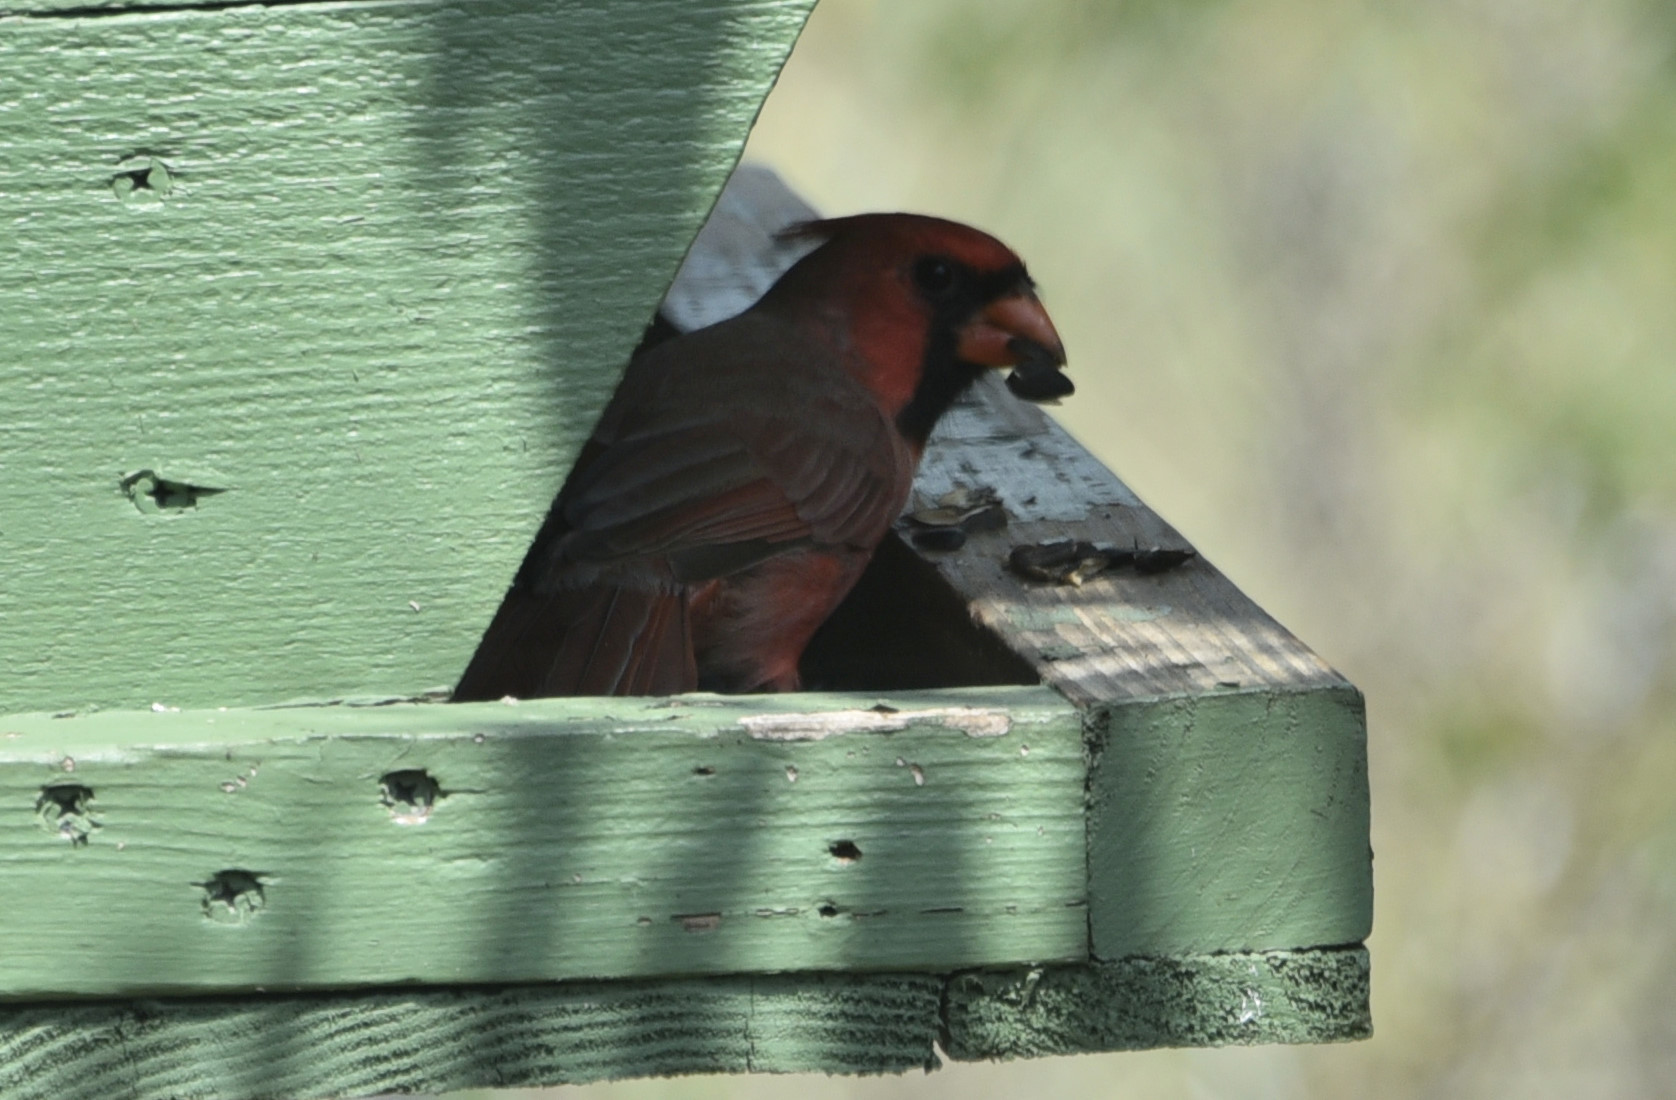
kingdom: Animalia
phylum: Chordata
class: Aves
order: Passeriformes
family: Cardinalidae
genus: Cardinalis
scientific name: Cardinalis cardinalis
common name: Northern cardinal
